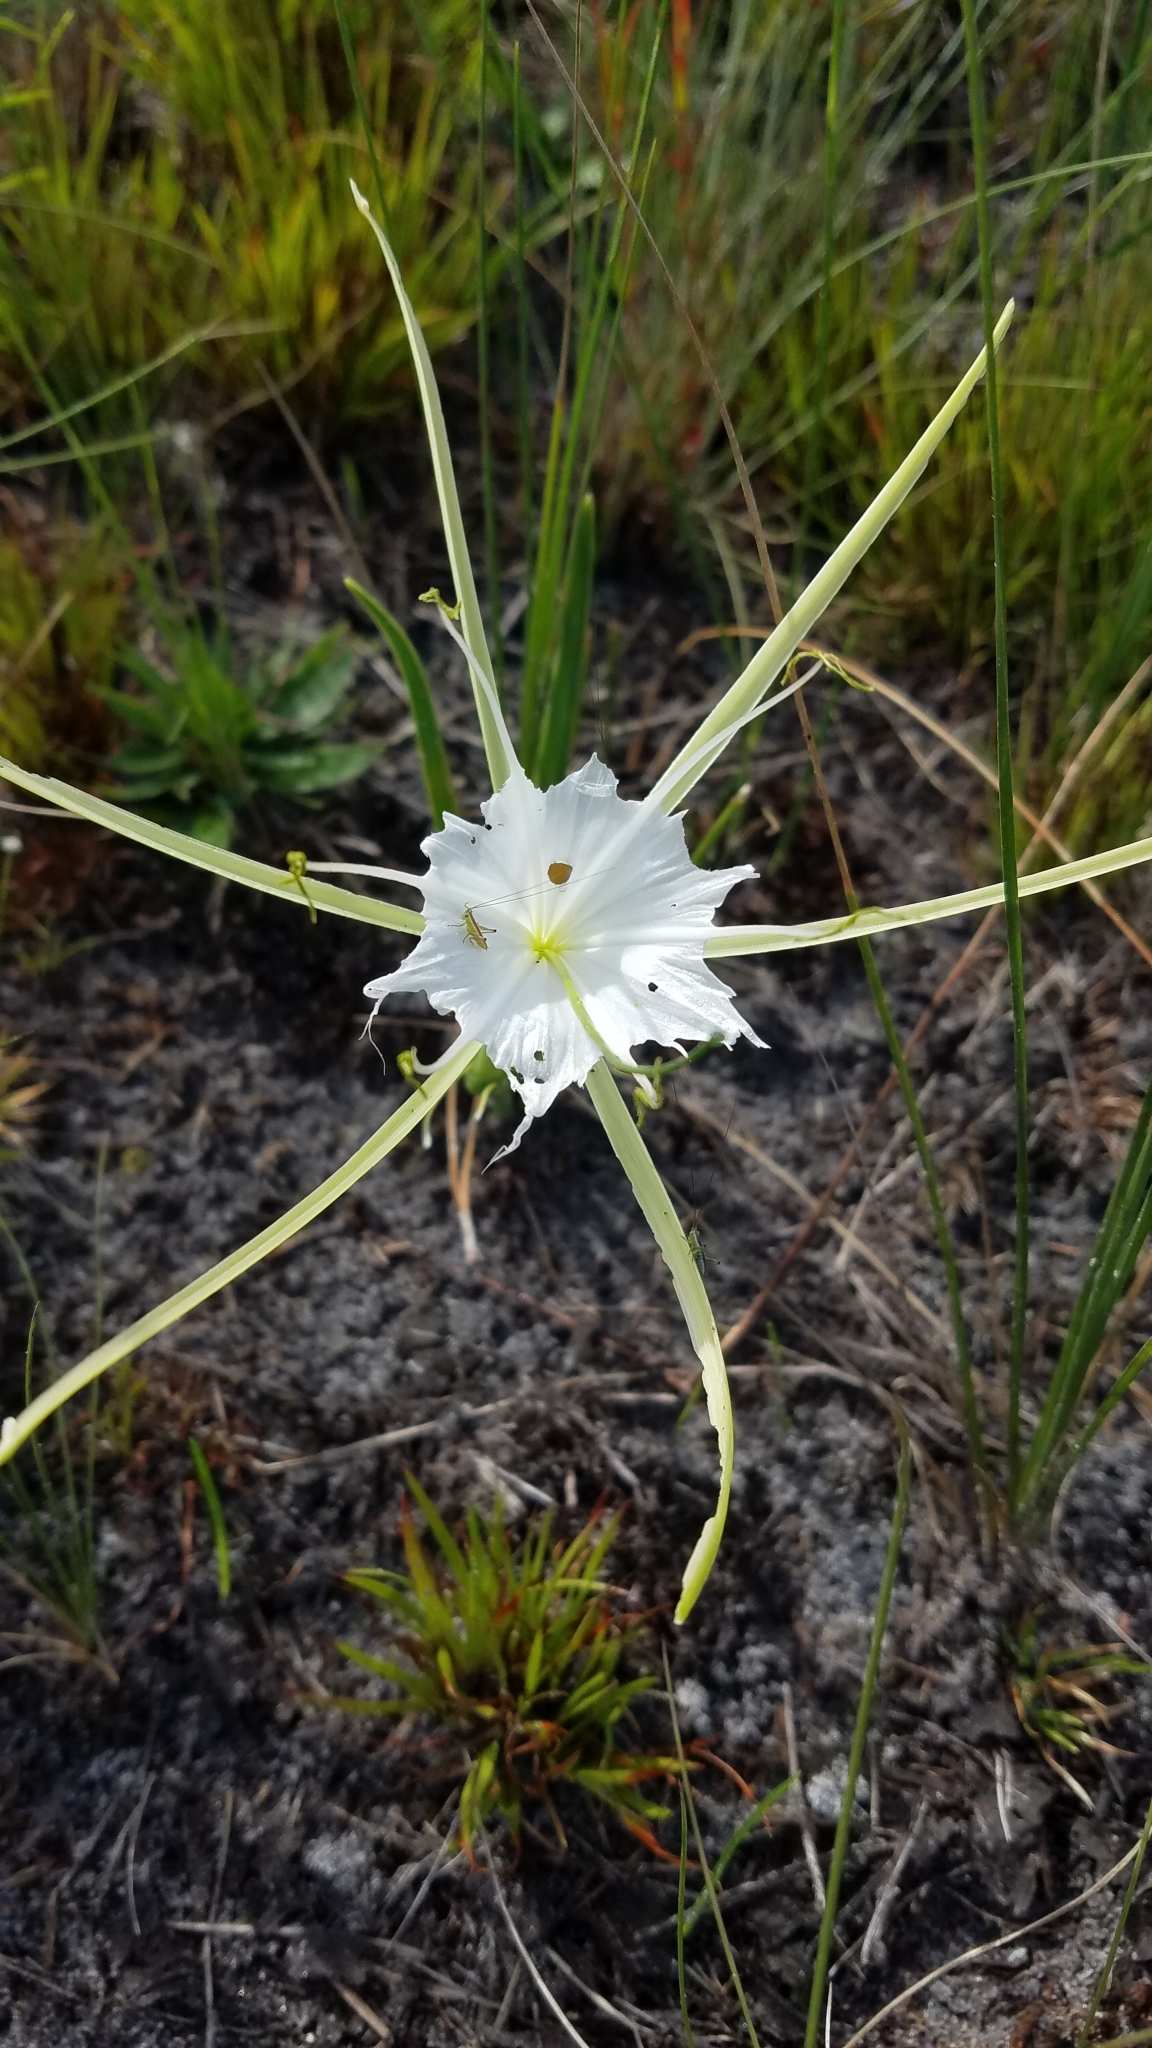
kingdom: Plantae
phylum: Tracheophyta
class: Liliopsida
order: Asparagales
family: Amaryllidaceae
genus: Hymenocallis
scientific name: Hymenocallis palmeri
